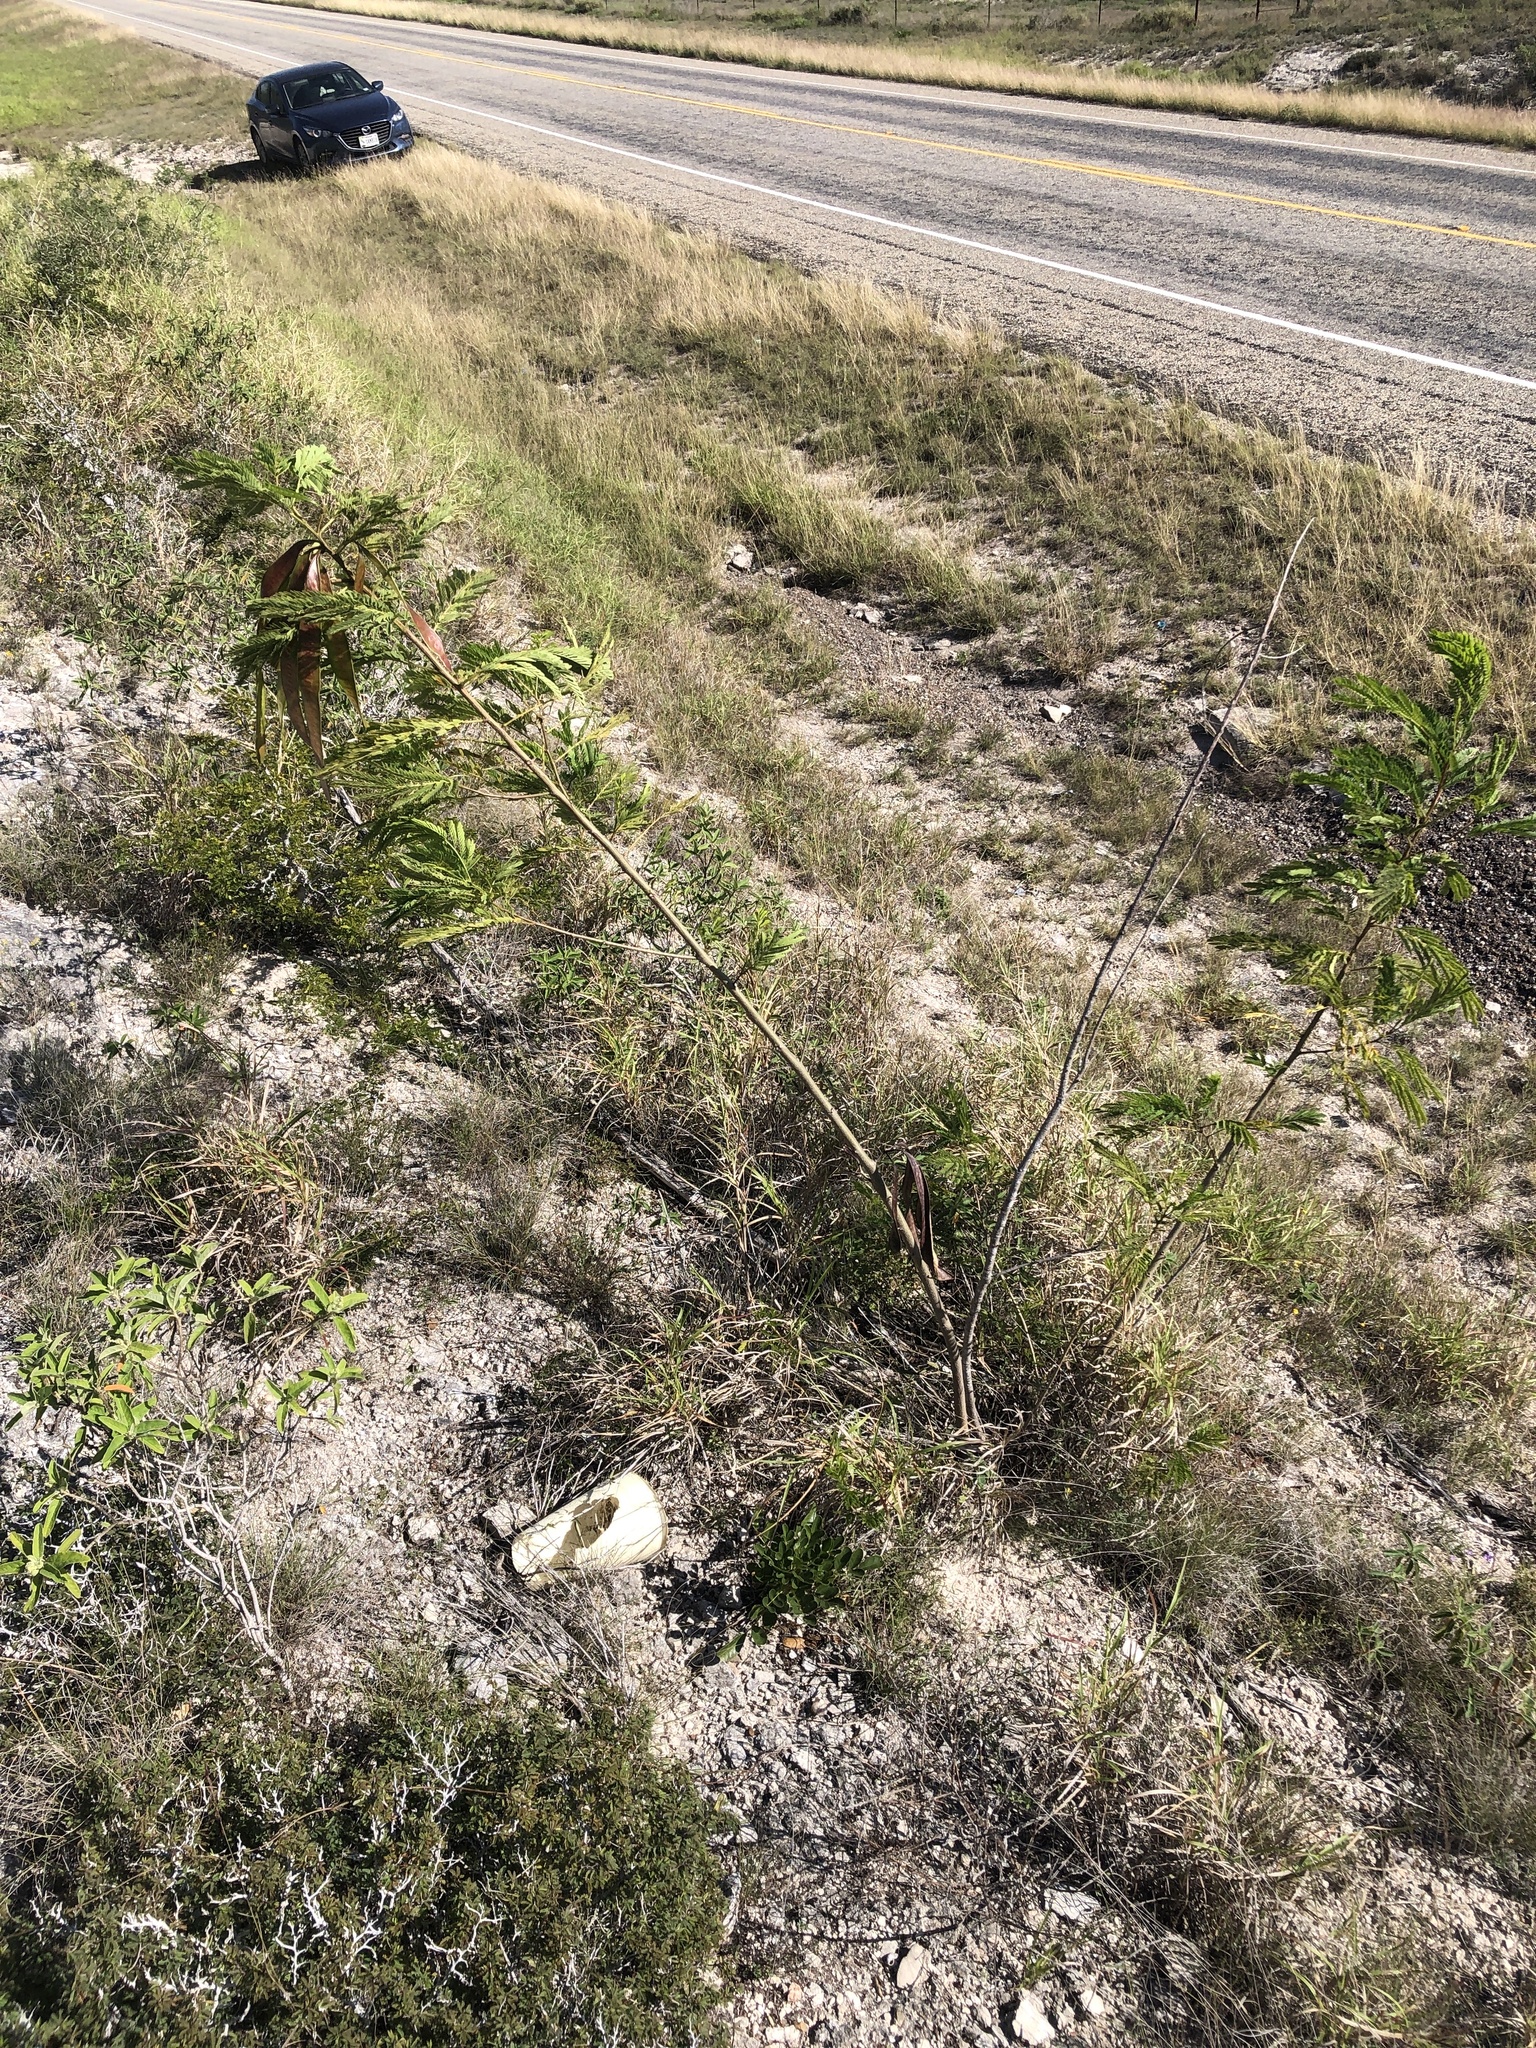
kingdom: Plantae
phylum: Tracheophyta
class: Magnoliopsida
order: Fabales
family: Fabaceae
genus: Leucaena
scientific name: Leucaena leucocephala
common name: White leadtree
